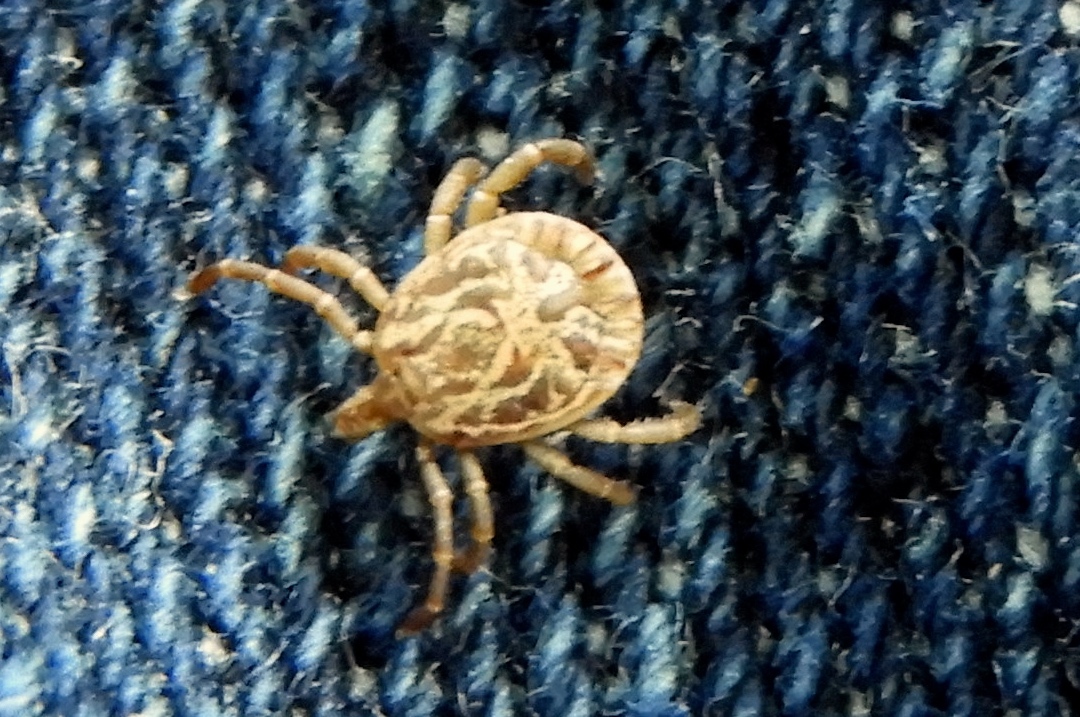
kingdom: Animalia
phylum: Arthropoda
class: Arachnida
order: Ixodida
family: Ixodidae
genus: Amblyomma
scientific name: Amblyomma cajennense
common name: Cayenne tick
